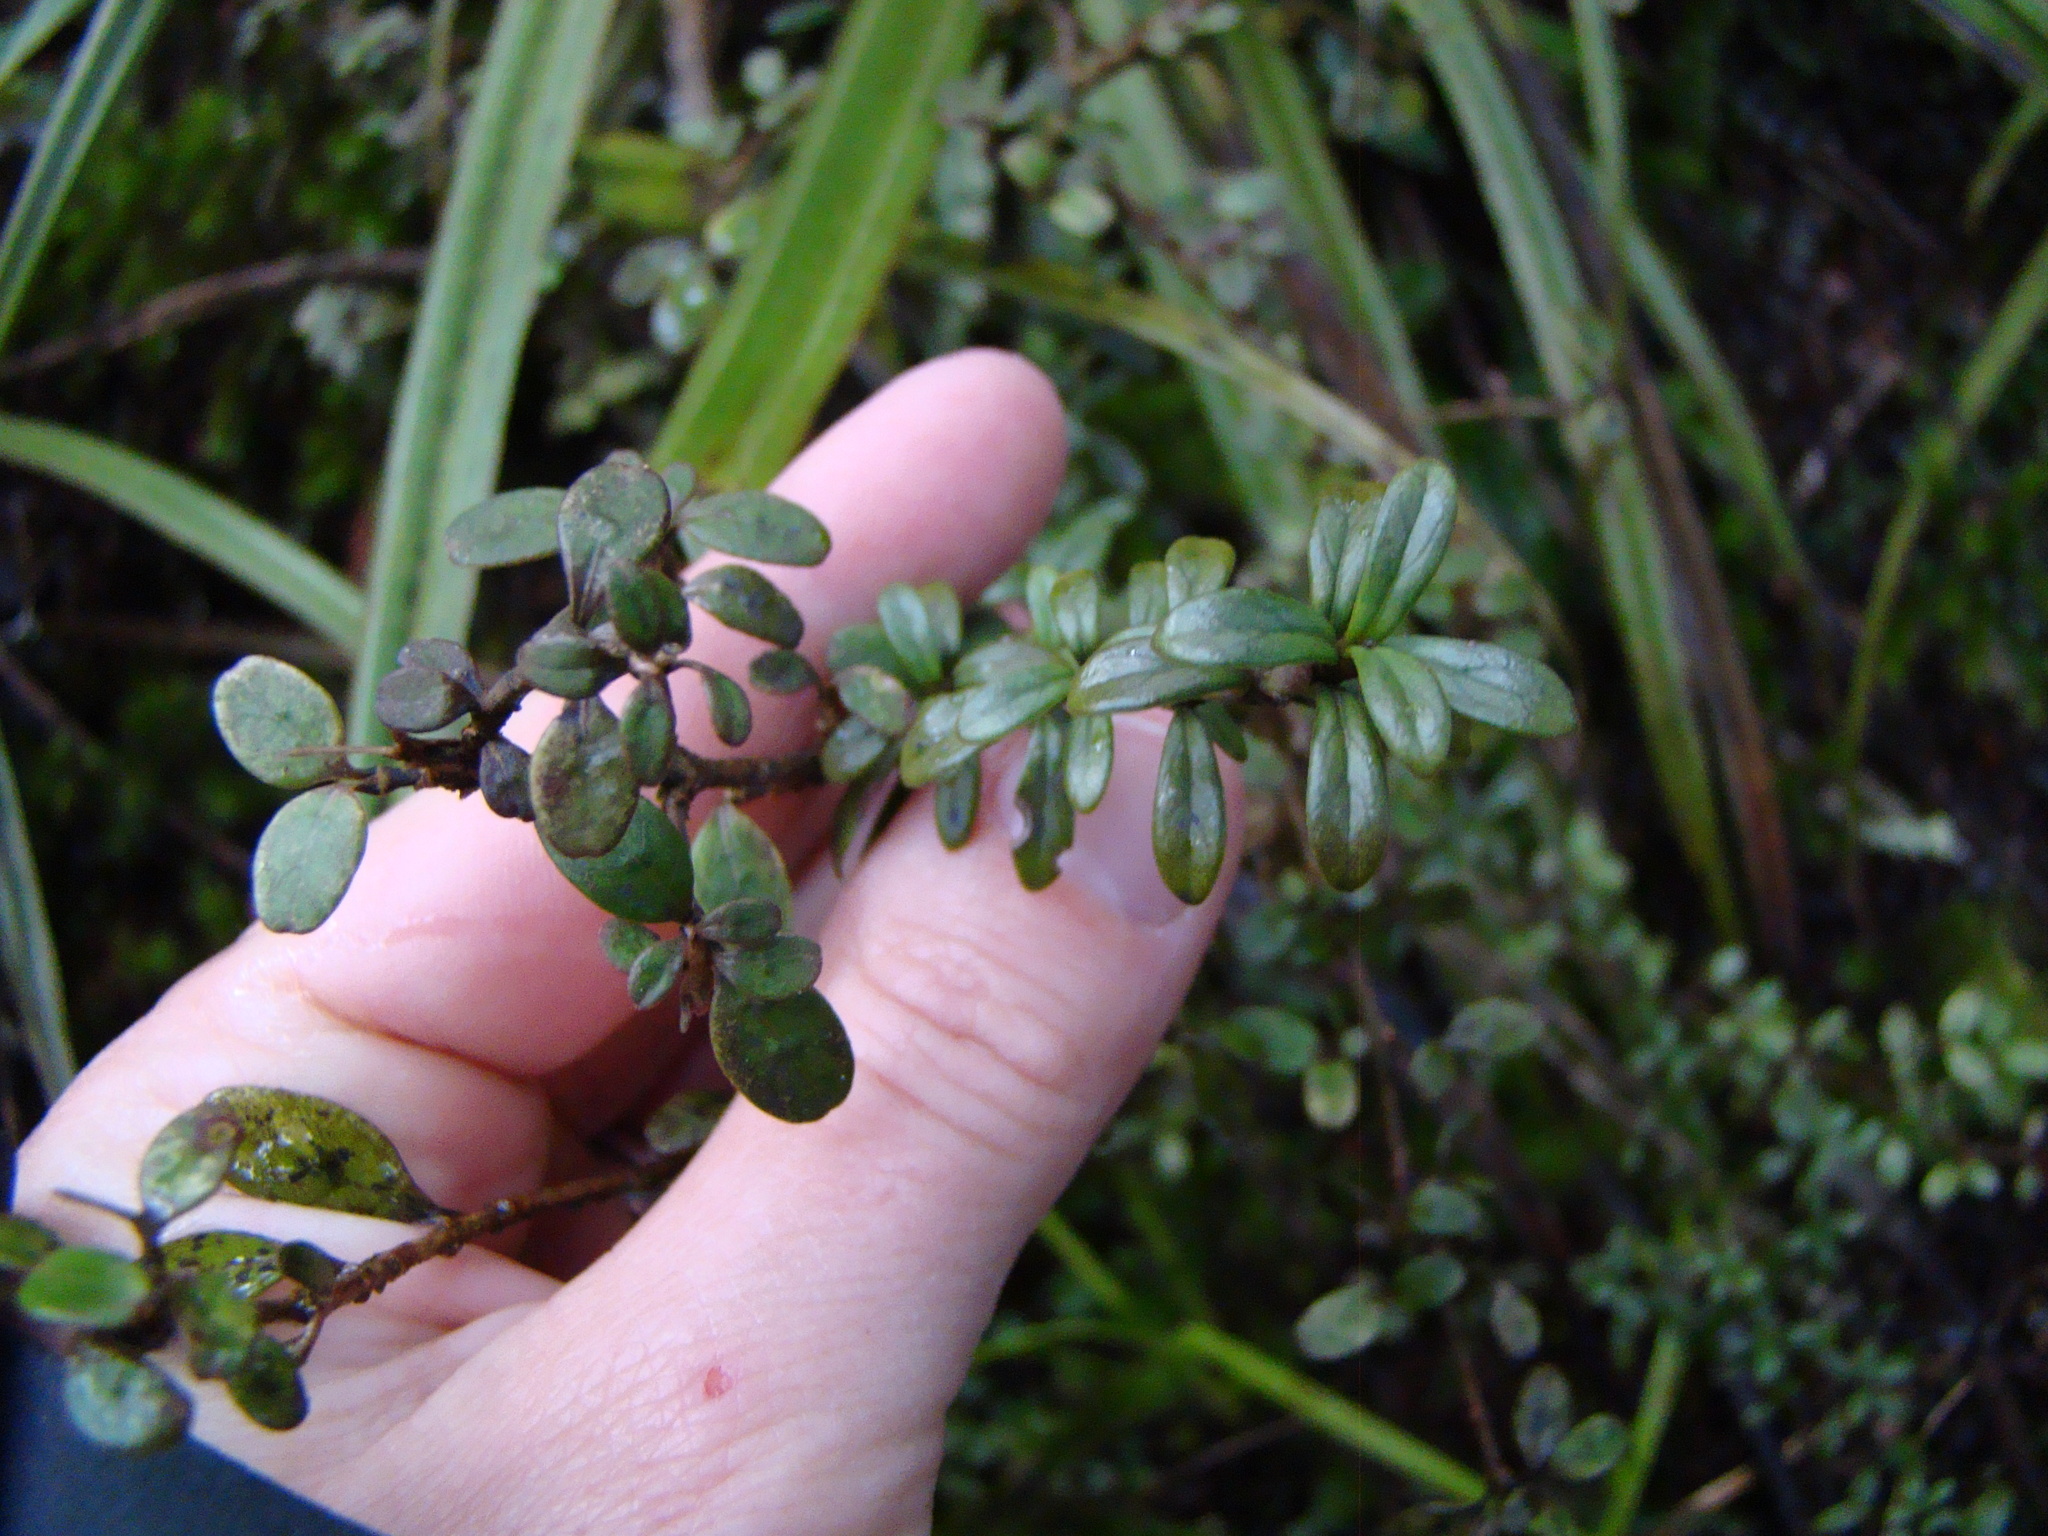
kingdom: Plantae
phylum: Tracheophyta
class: Magnoliopsida
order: Gentianales
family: Rubiaceae
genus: Coprosma
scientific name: Coprosma colensoi
